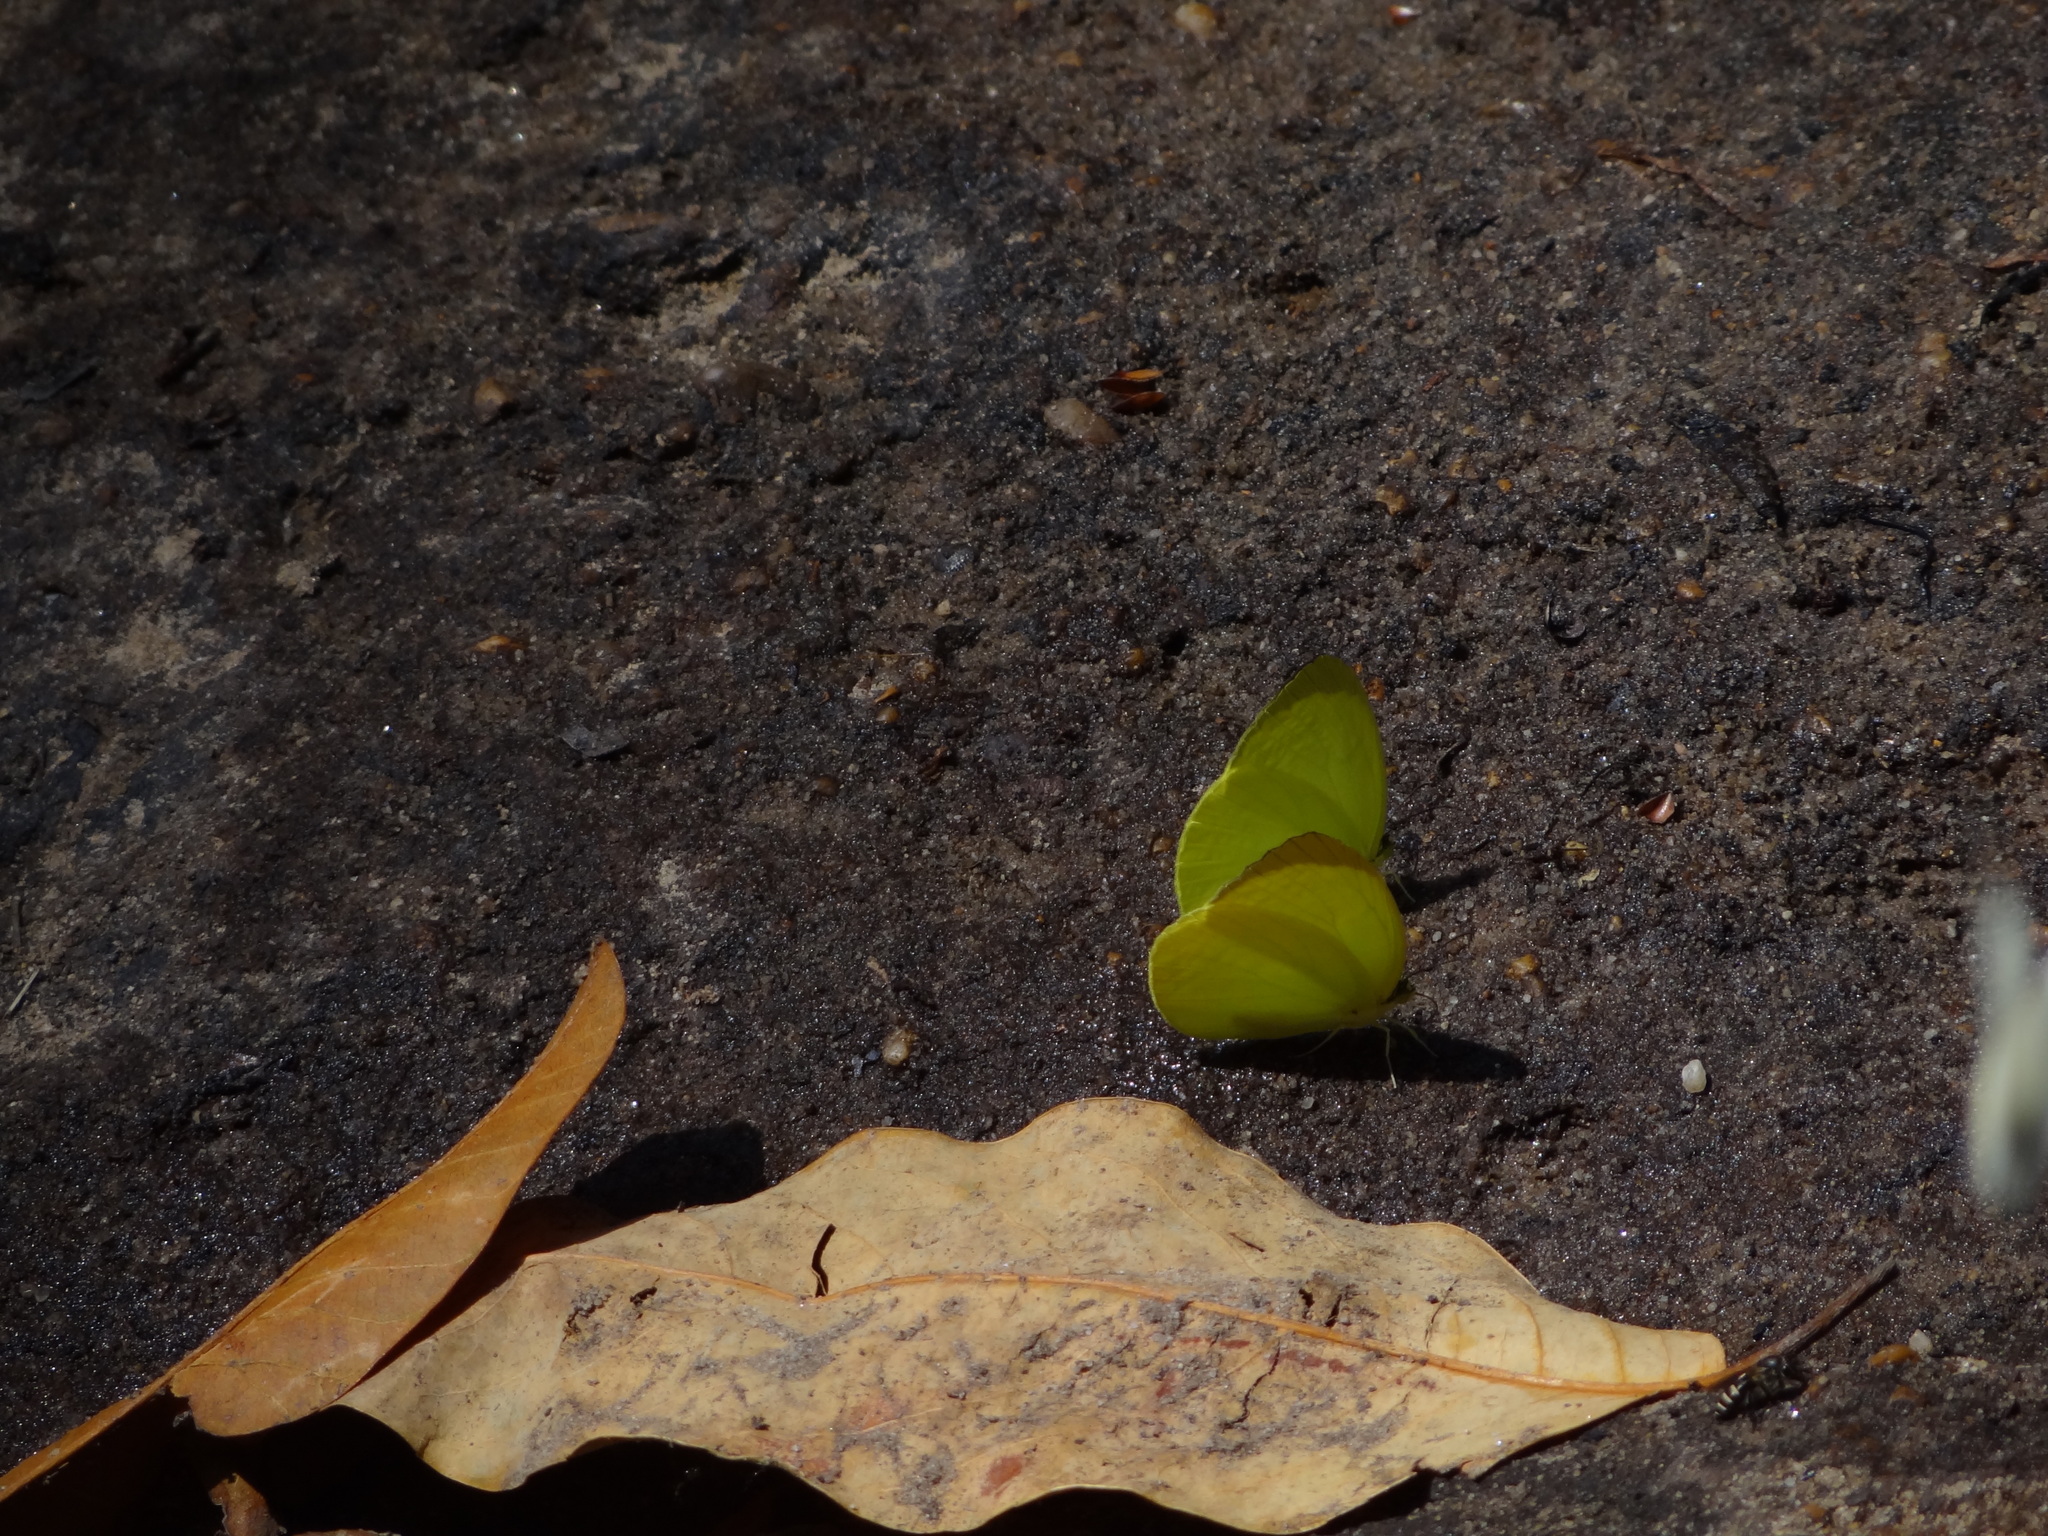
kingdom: Animalia
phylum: Arthropoda
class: Insecta
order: Lepidoptera
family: Pieridae
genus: Gandaca
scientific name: Gandaca harina
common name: Tree yellow
